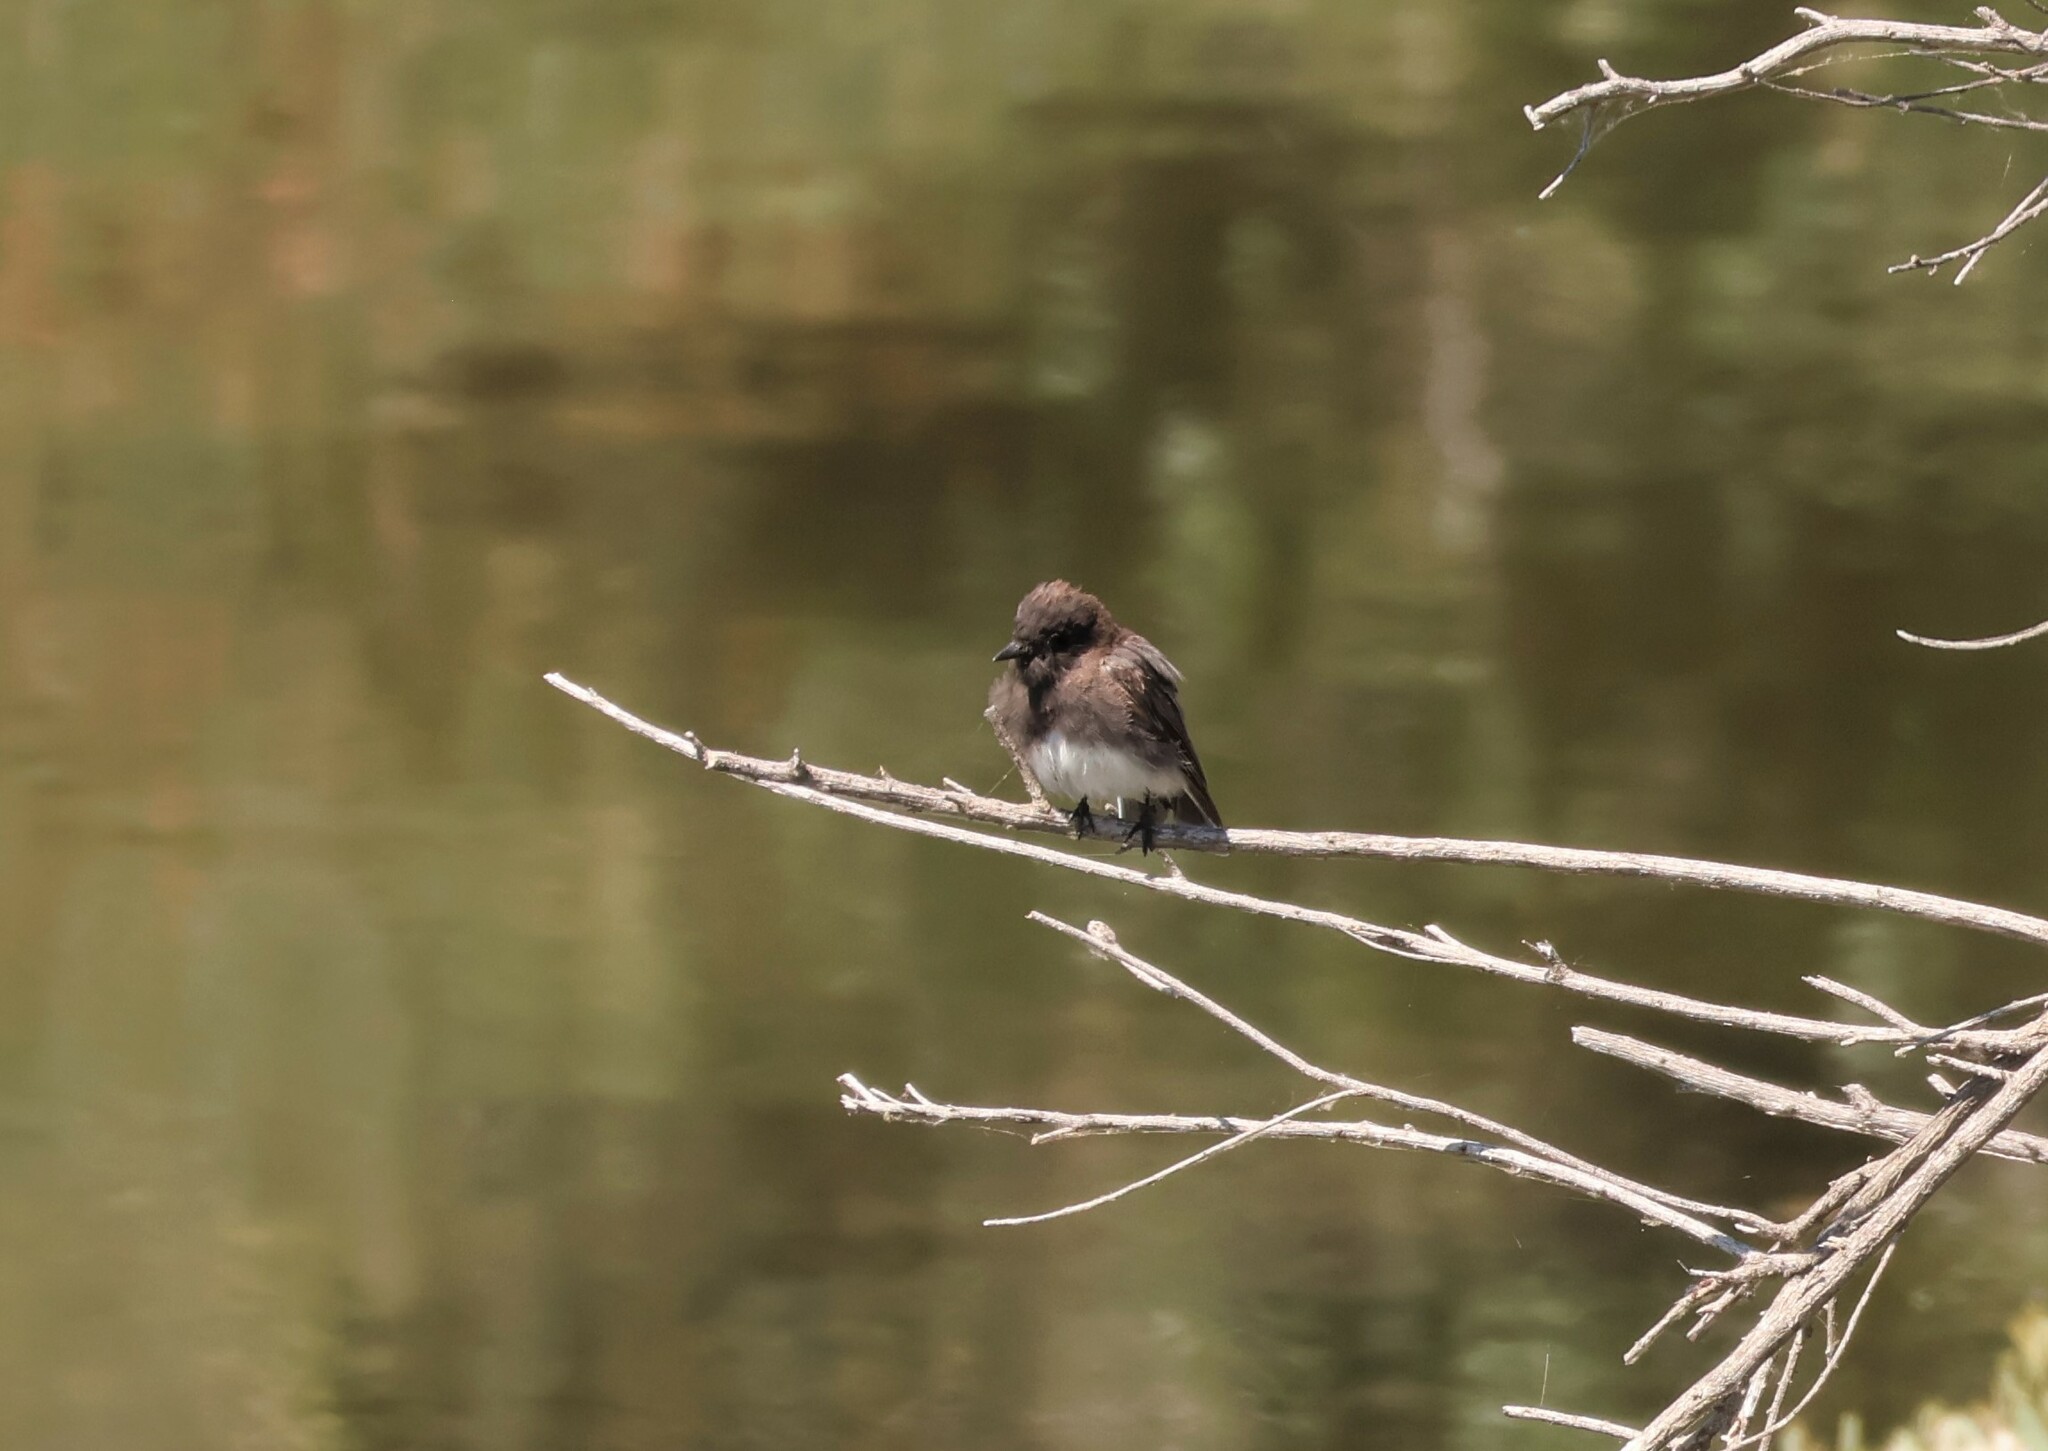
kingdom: Animalia
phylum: Chordata
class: Aves
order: Passeriformes
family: Tyrannidae
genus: Sayornis
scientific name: Sayornis nigricans
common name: Black phoebe
